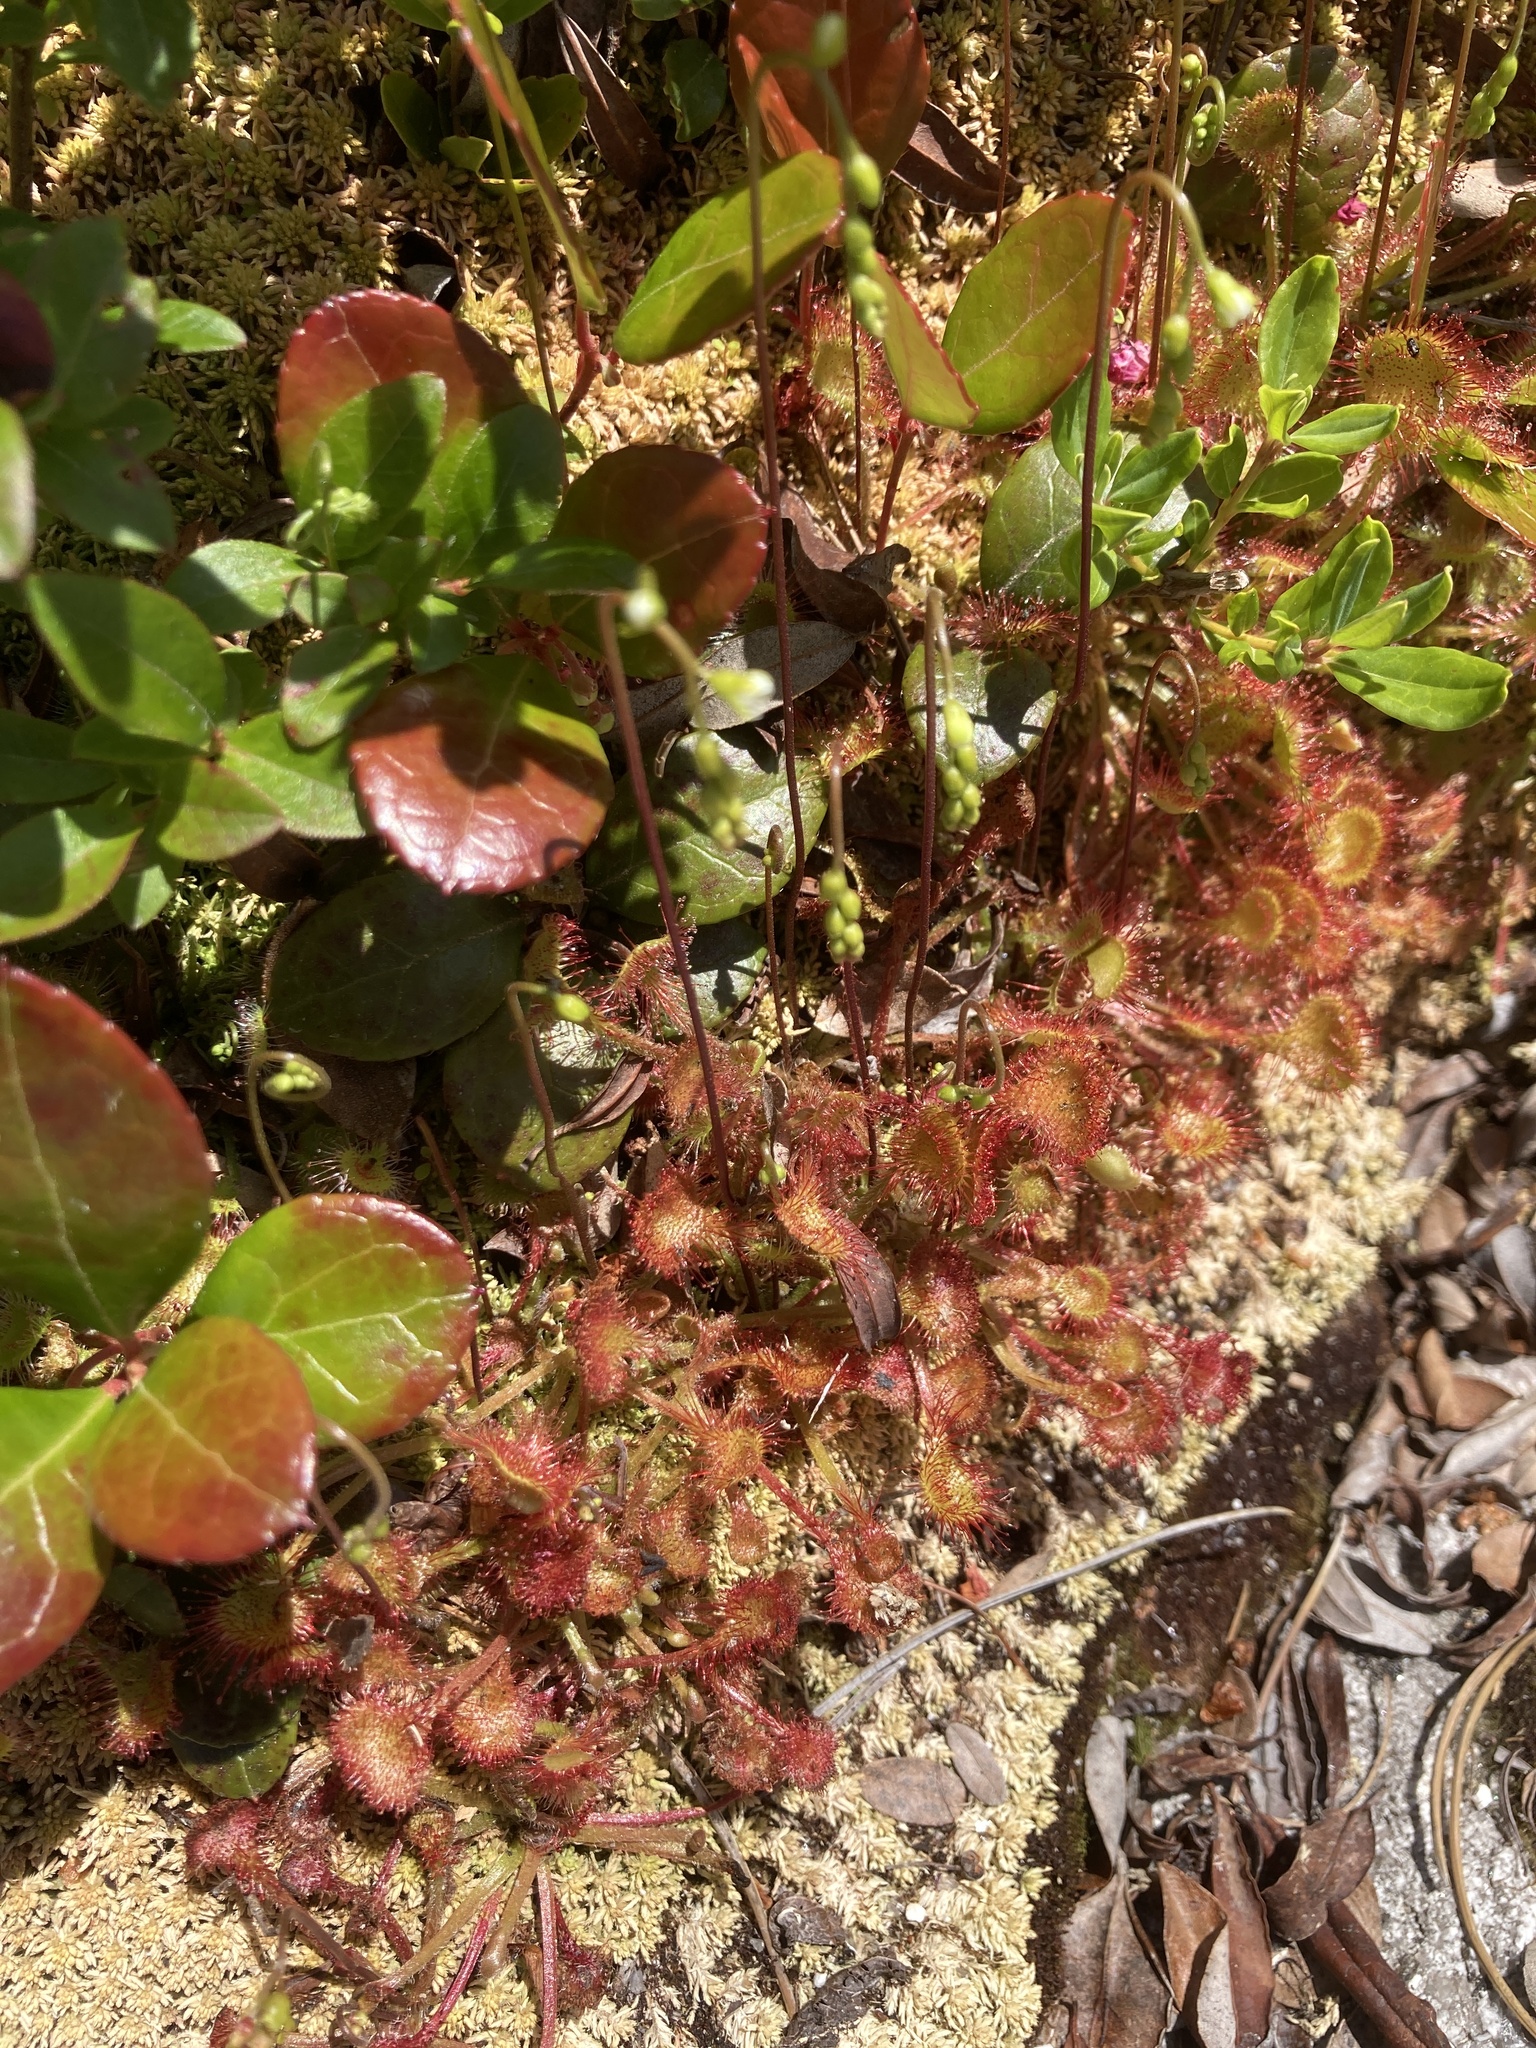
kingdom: Plantae
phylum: Tracheophyta
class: Magnoliopsida
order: Caryophyllales
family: Droseraceae
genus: Drosera
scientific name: Drosera rotundifolia
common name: Round-leaved sundew
